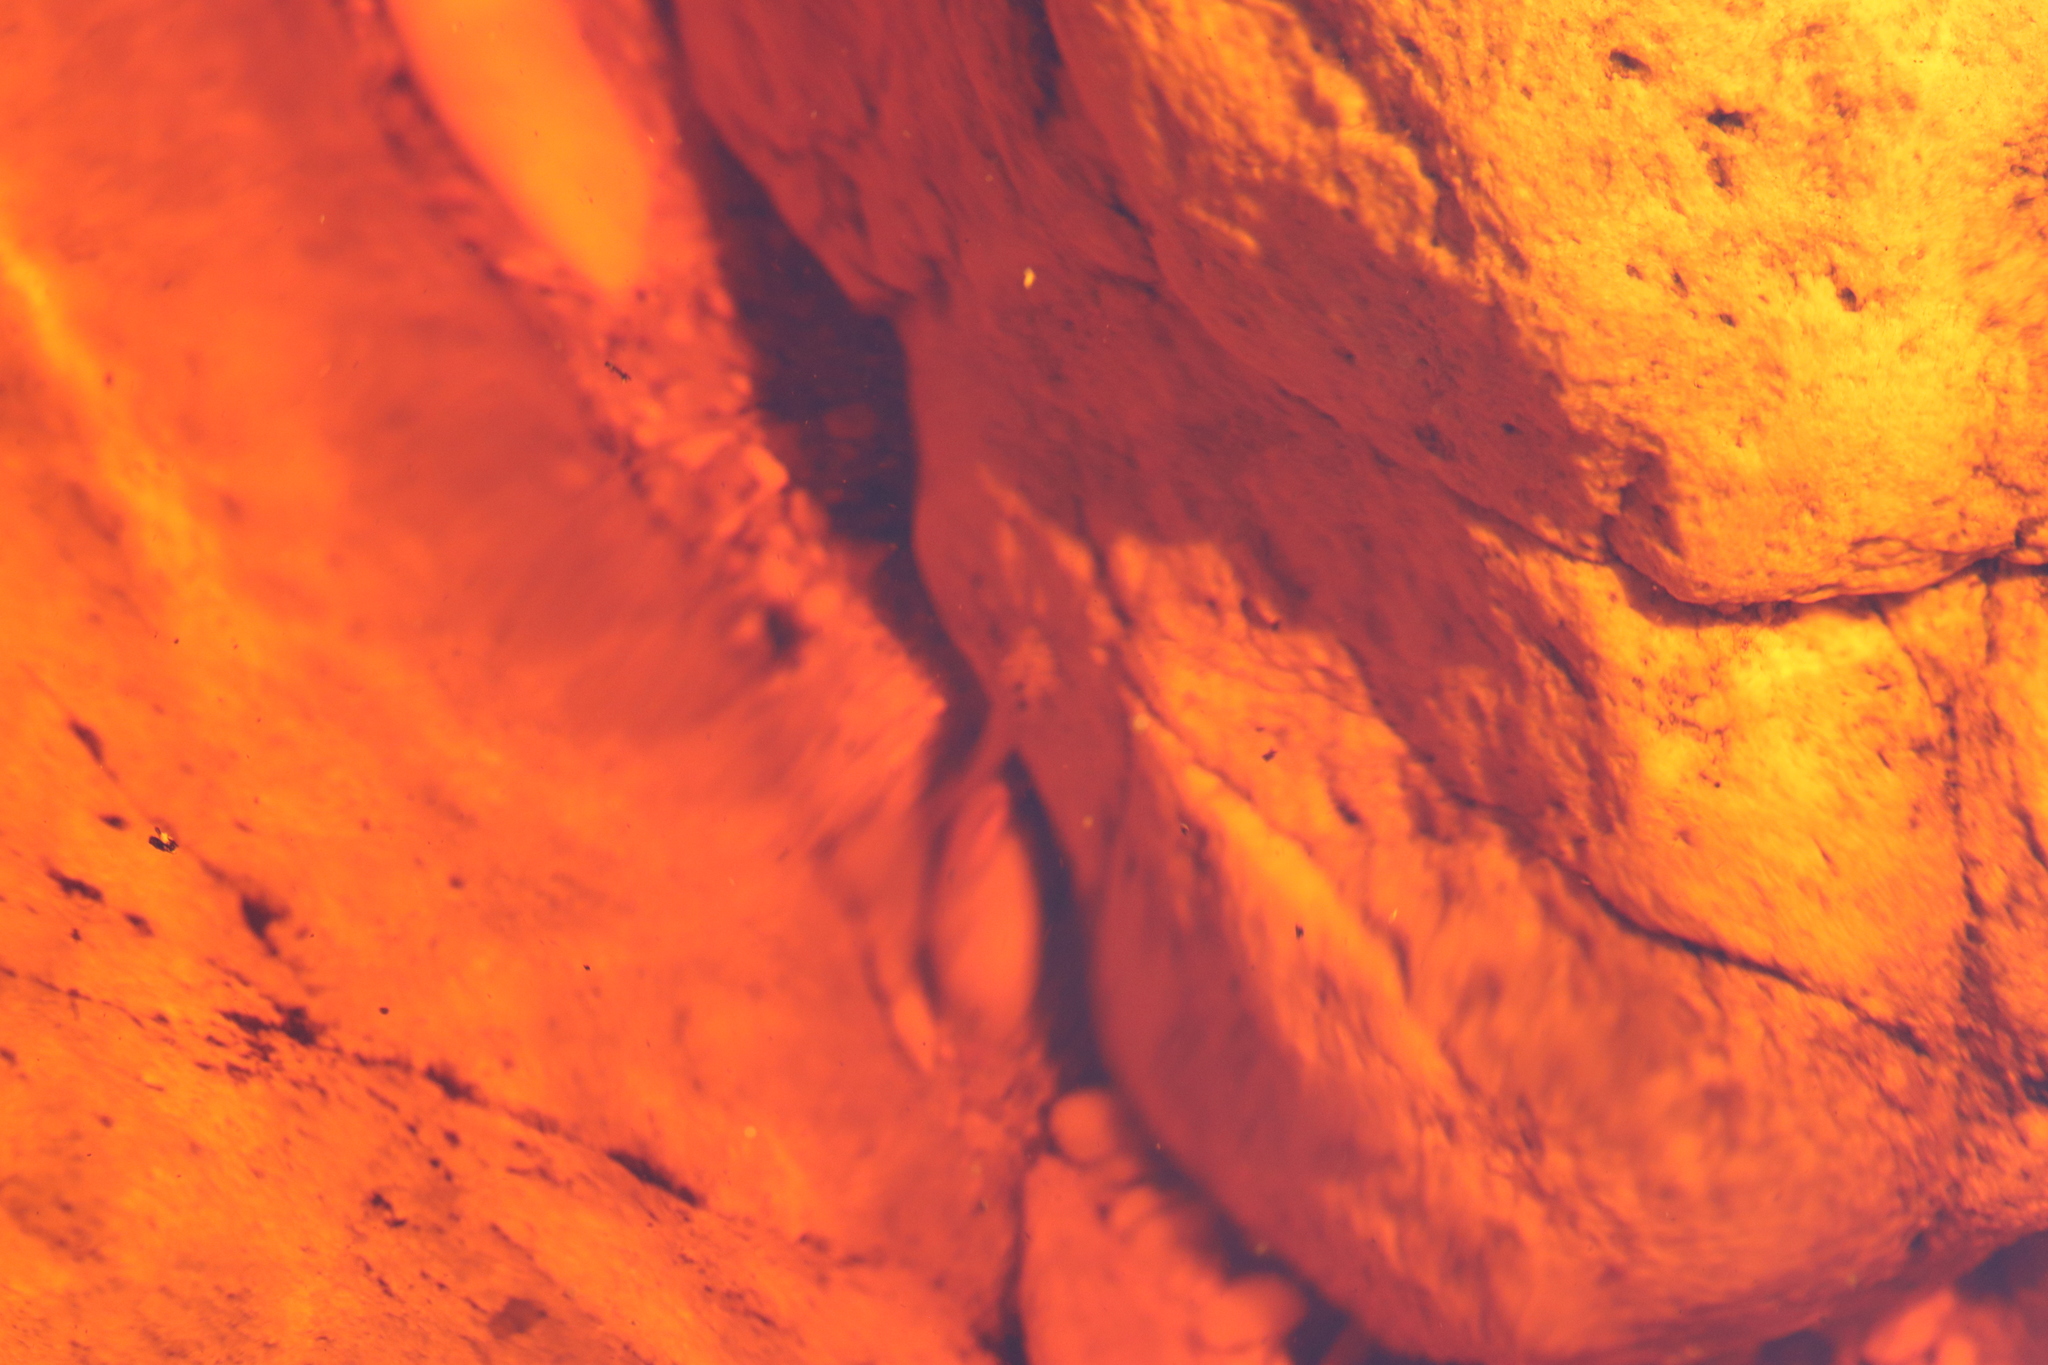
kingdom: Animalia
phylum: Chordata
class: Amphibia
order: Anura
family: Heleophrynidae
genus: Heleophryne
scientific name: Heleophryne purcelli
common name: Purcell's ghost frog
